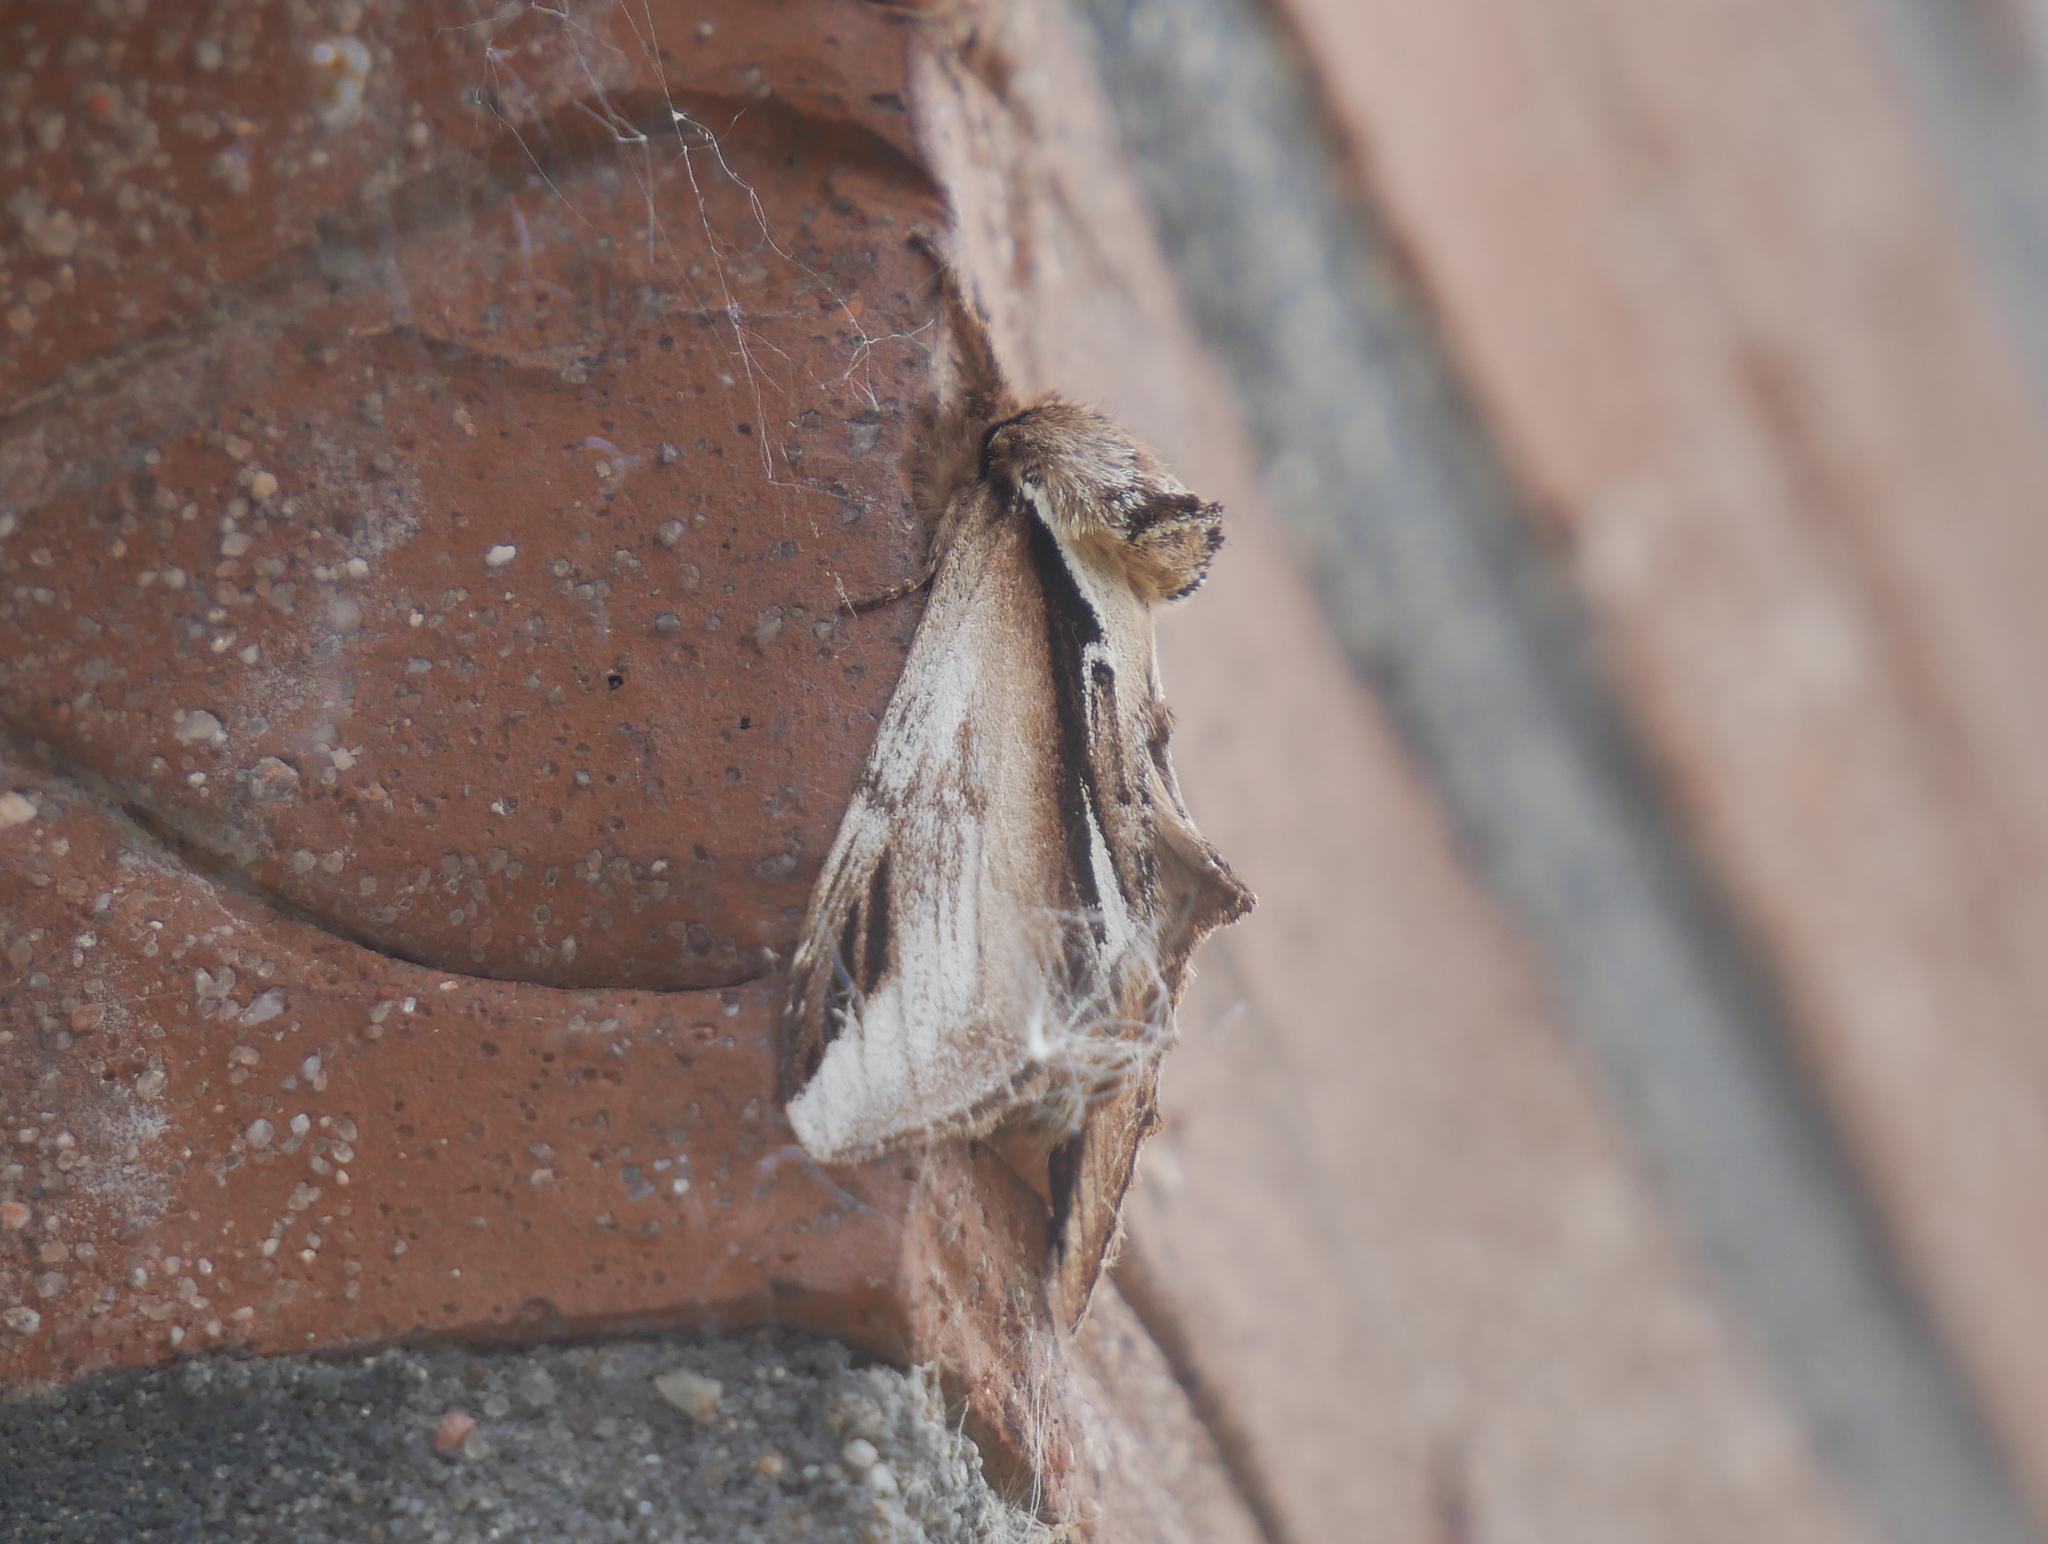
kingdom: Animalia
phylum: Arthropoda
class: Insecta
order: Lepidoptera
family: Notodontidae
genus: Pheosia
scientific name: Pheosia gnoma
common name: Lesser swallow prominent
